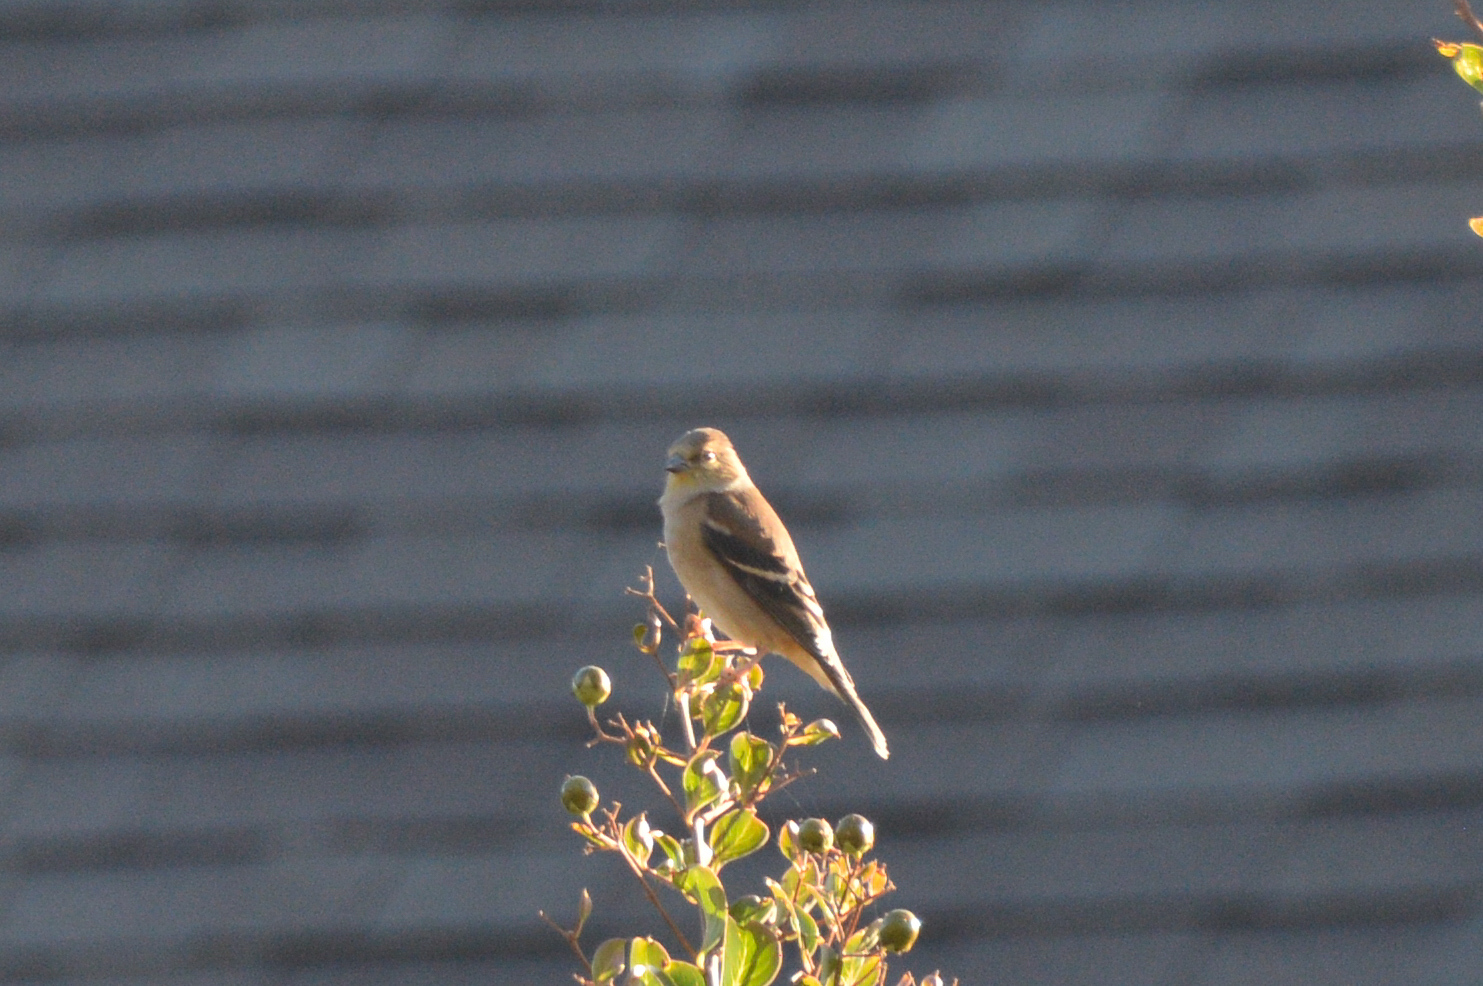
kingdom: Animalia
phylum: Chordata
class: Aves
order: Passeriformes
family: Fringillidae
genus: Spinus
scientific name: Spinus tristis
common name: American goldfinch
